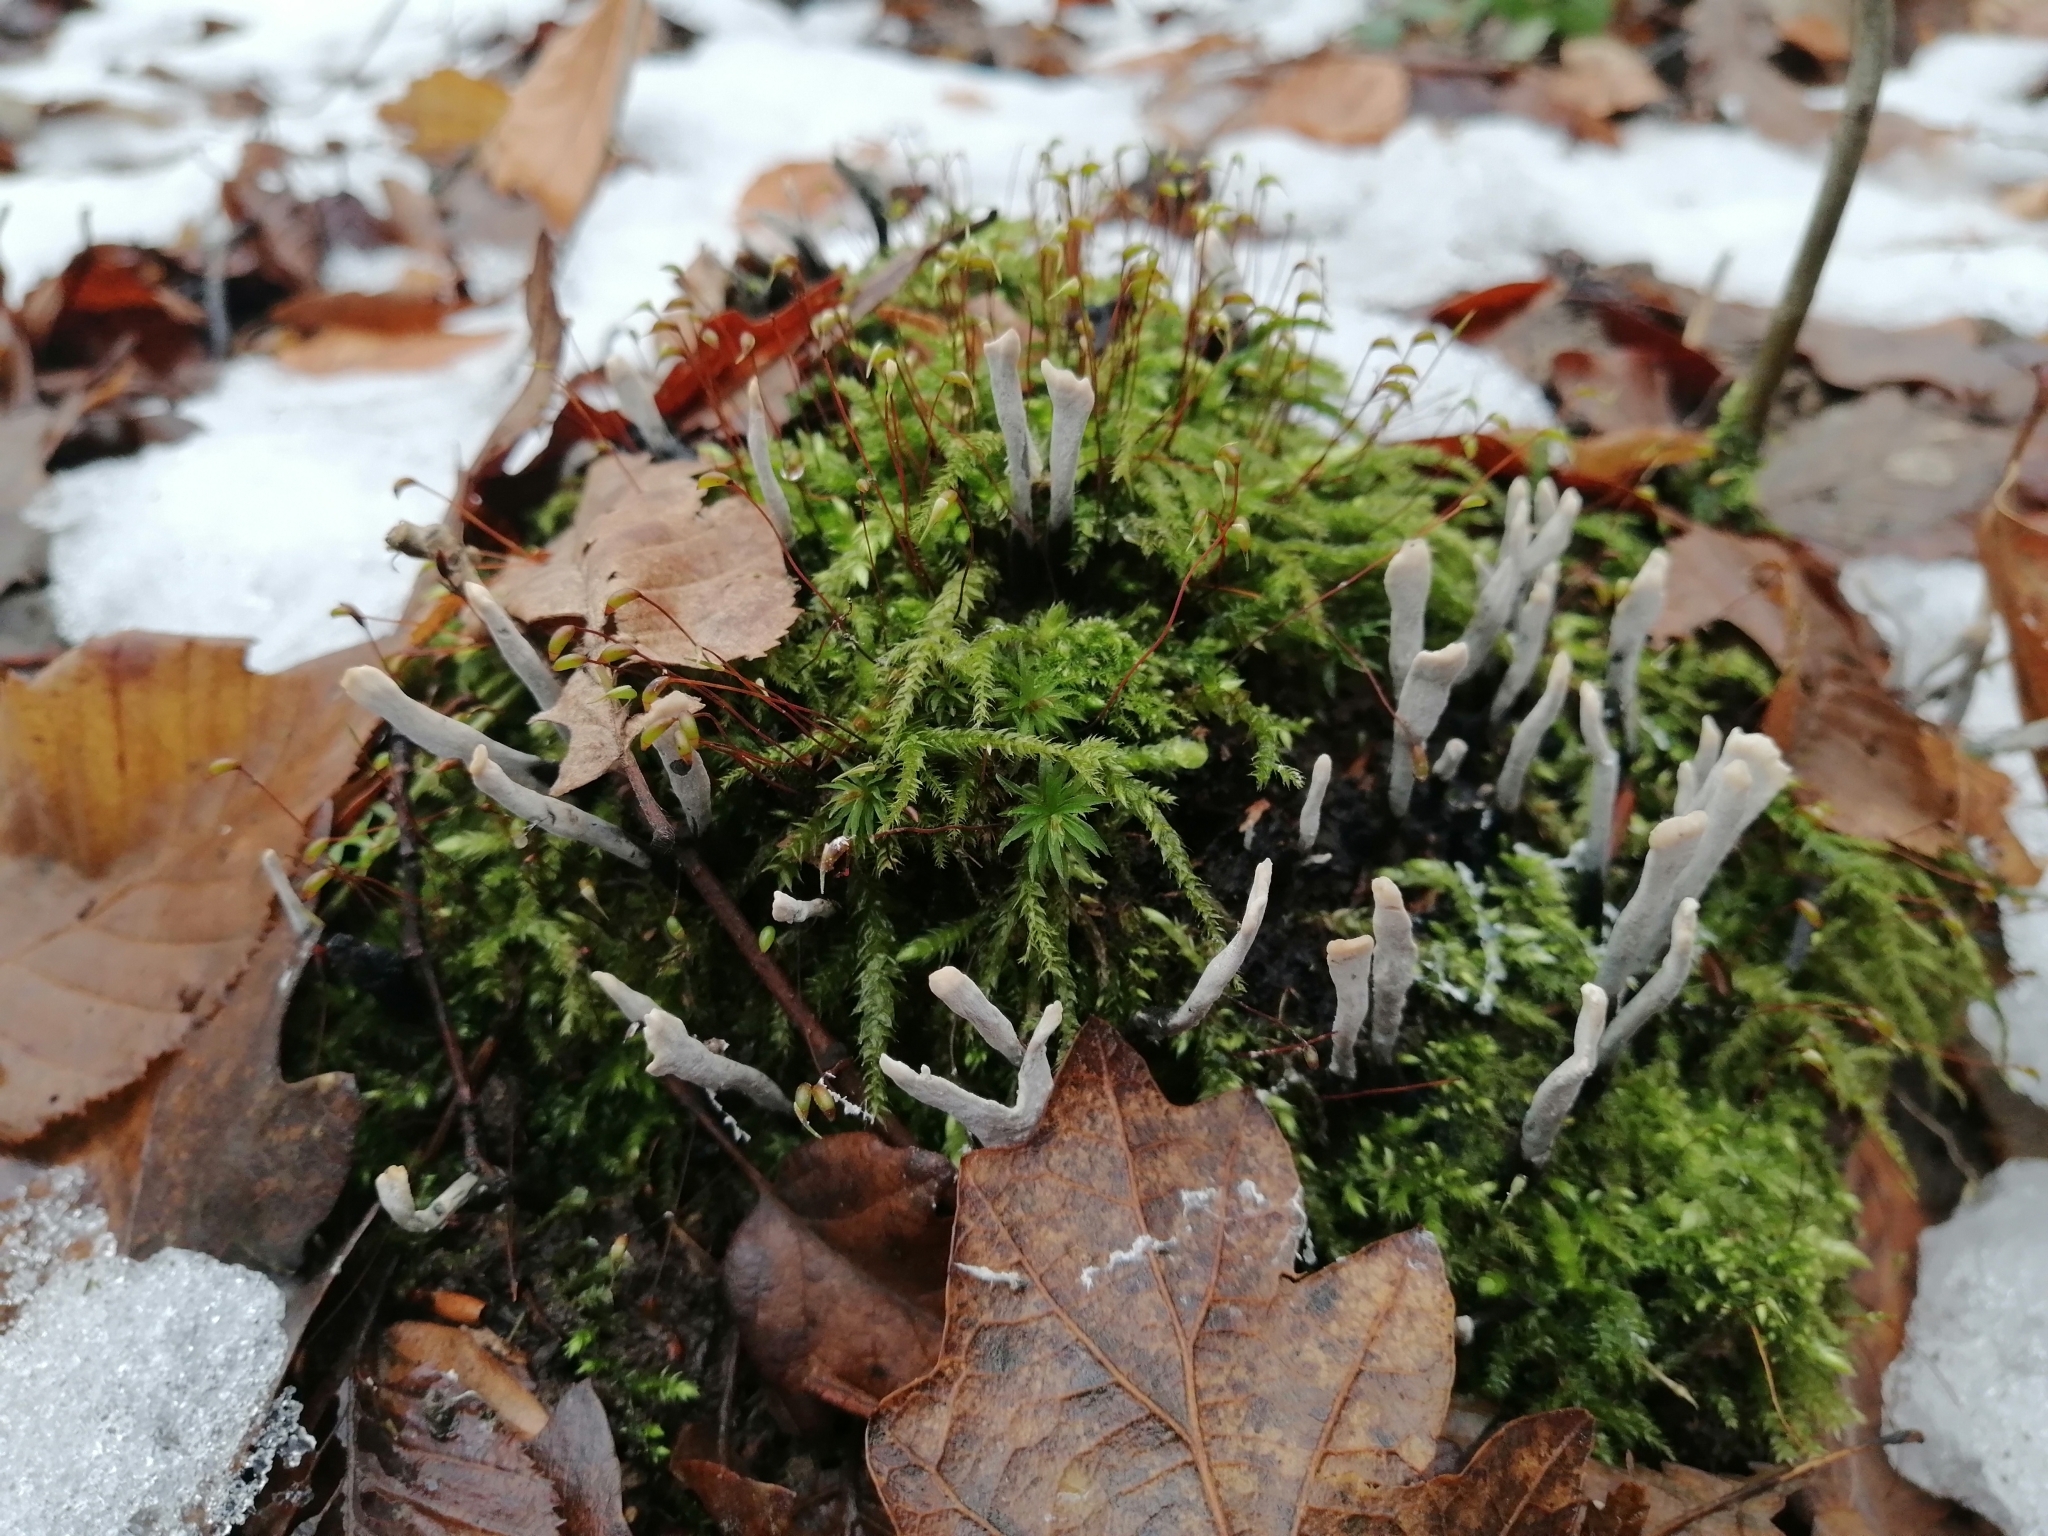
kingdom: Fungi
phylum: Ascomycota
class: Sordariomycetes
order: Xylariales
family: Xylariaceae
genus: Xylaria
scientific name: Xylaria hypoxylon
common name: Candle-snuff fungus
